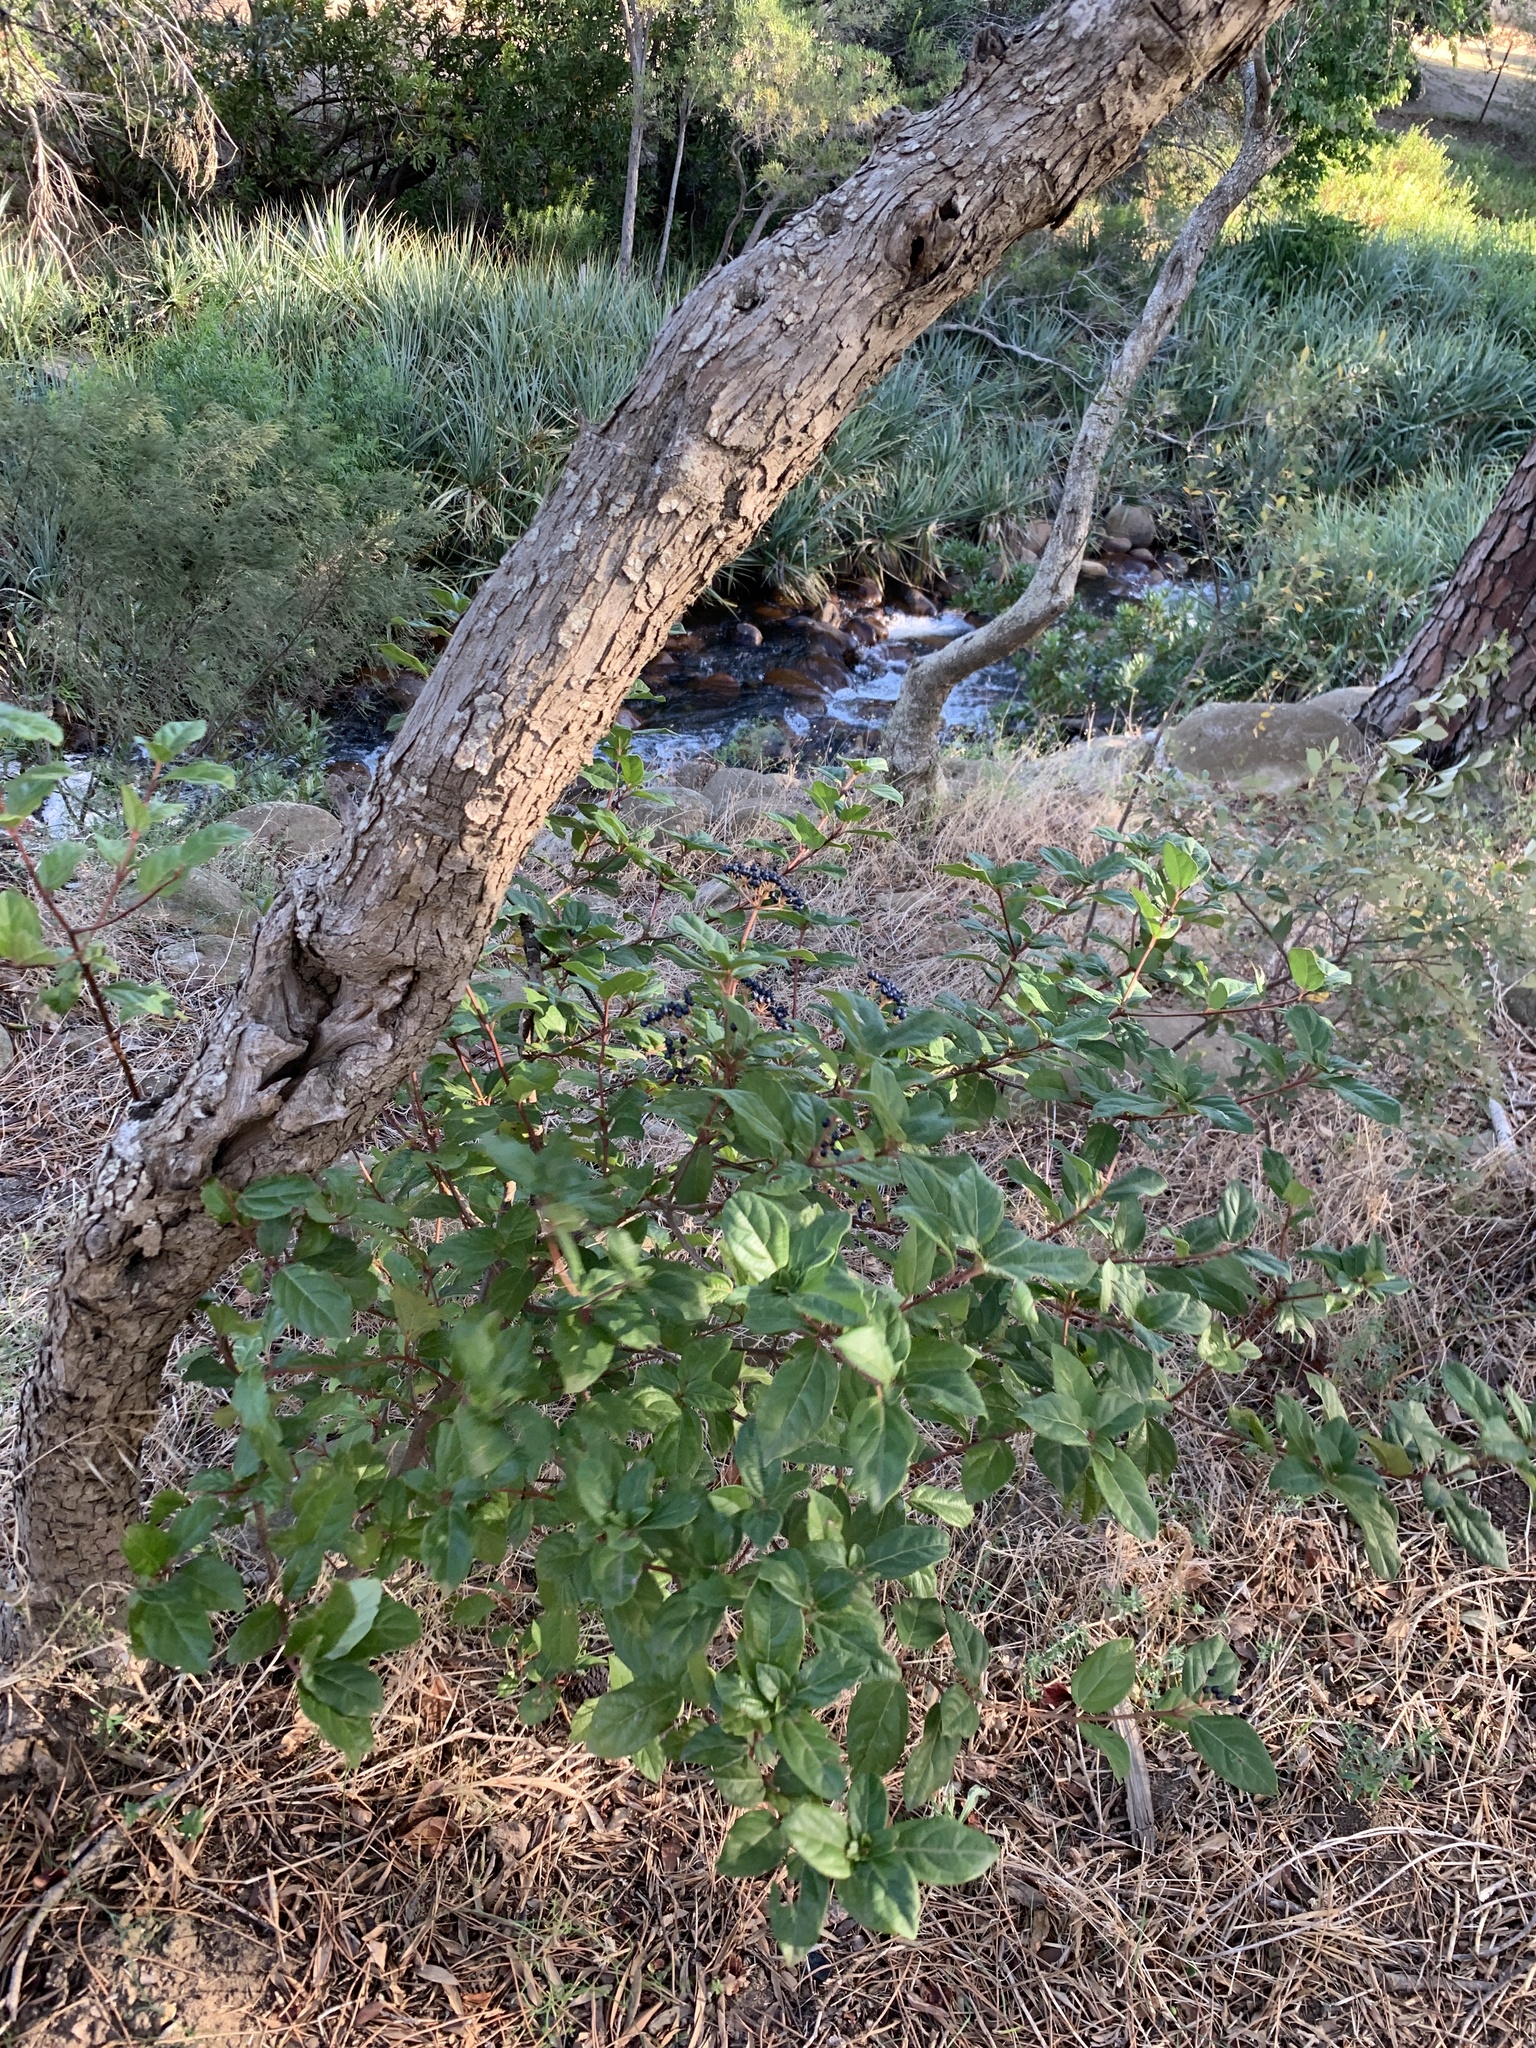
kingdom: Plantae
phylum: Tracheophyta
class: Magnoliopsida
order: Dipsacales
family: Viburnaceae
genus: Viburnum
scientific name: Viburnum tinus
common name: Laurustinus
